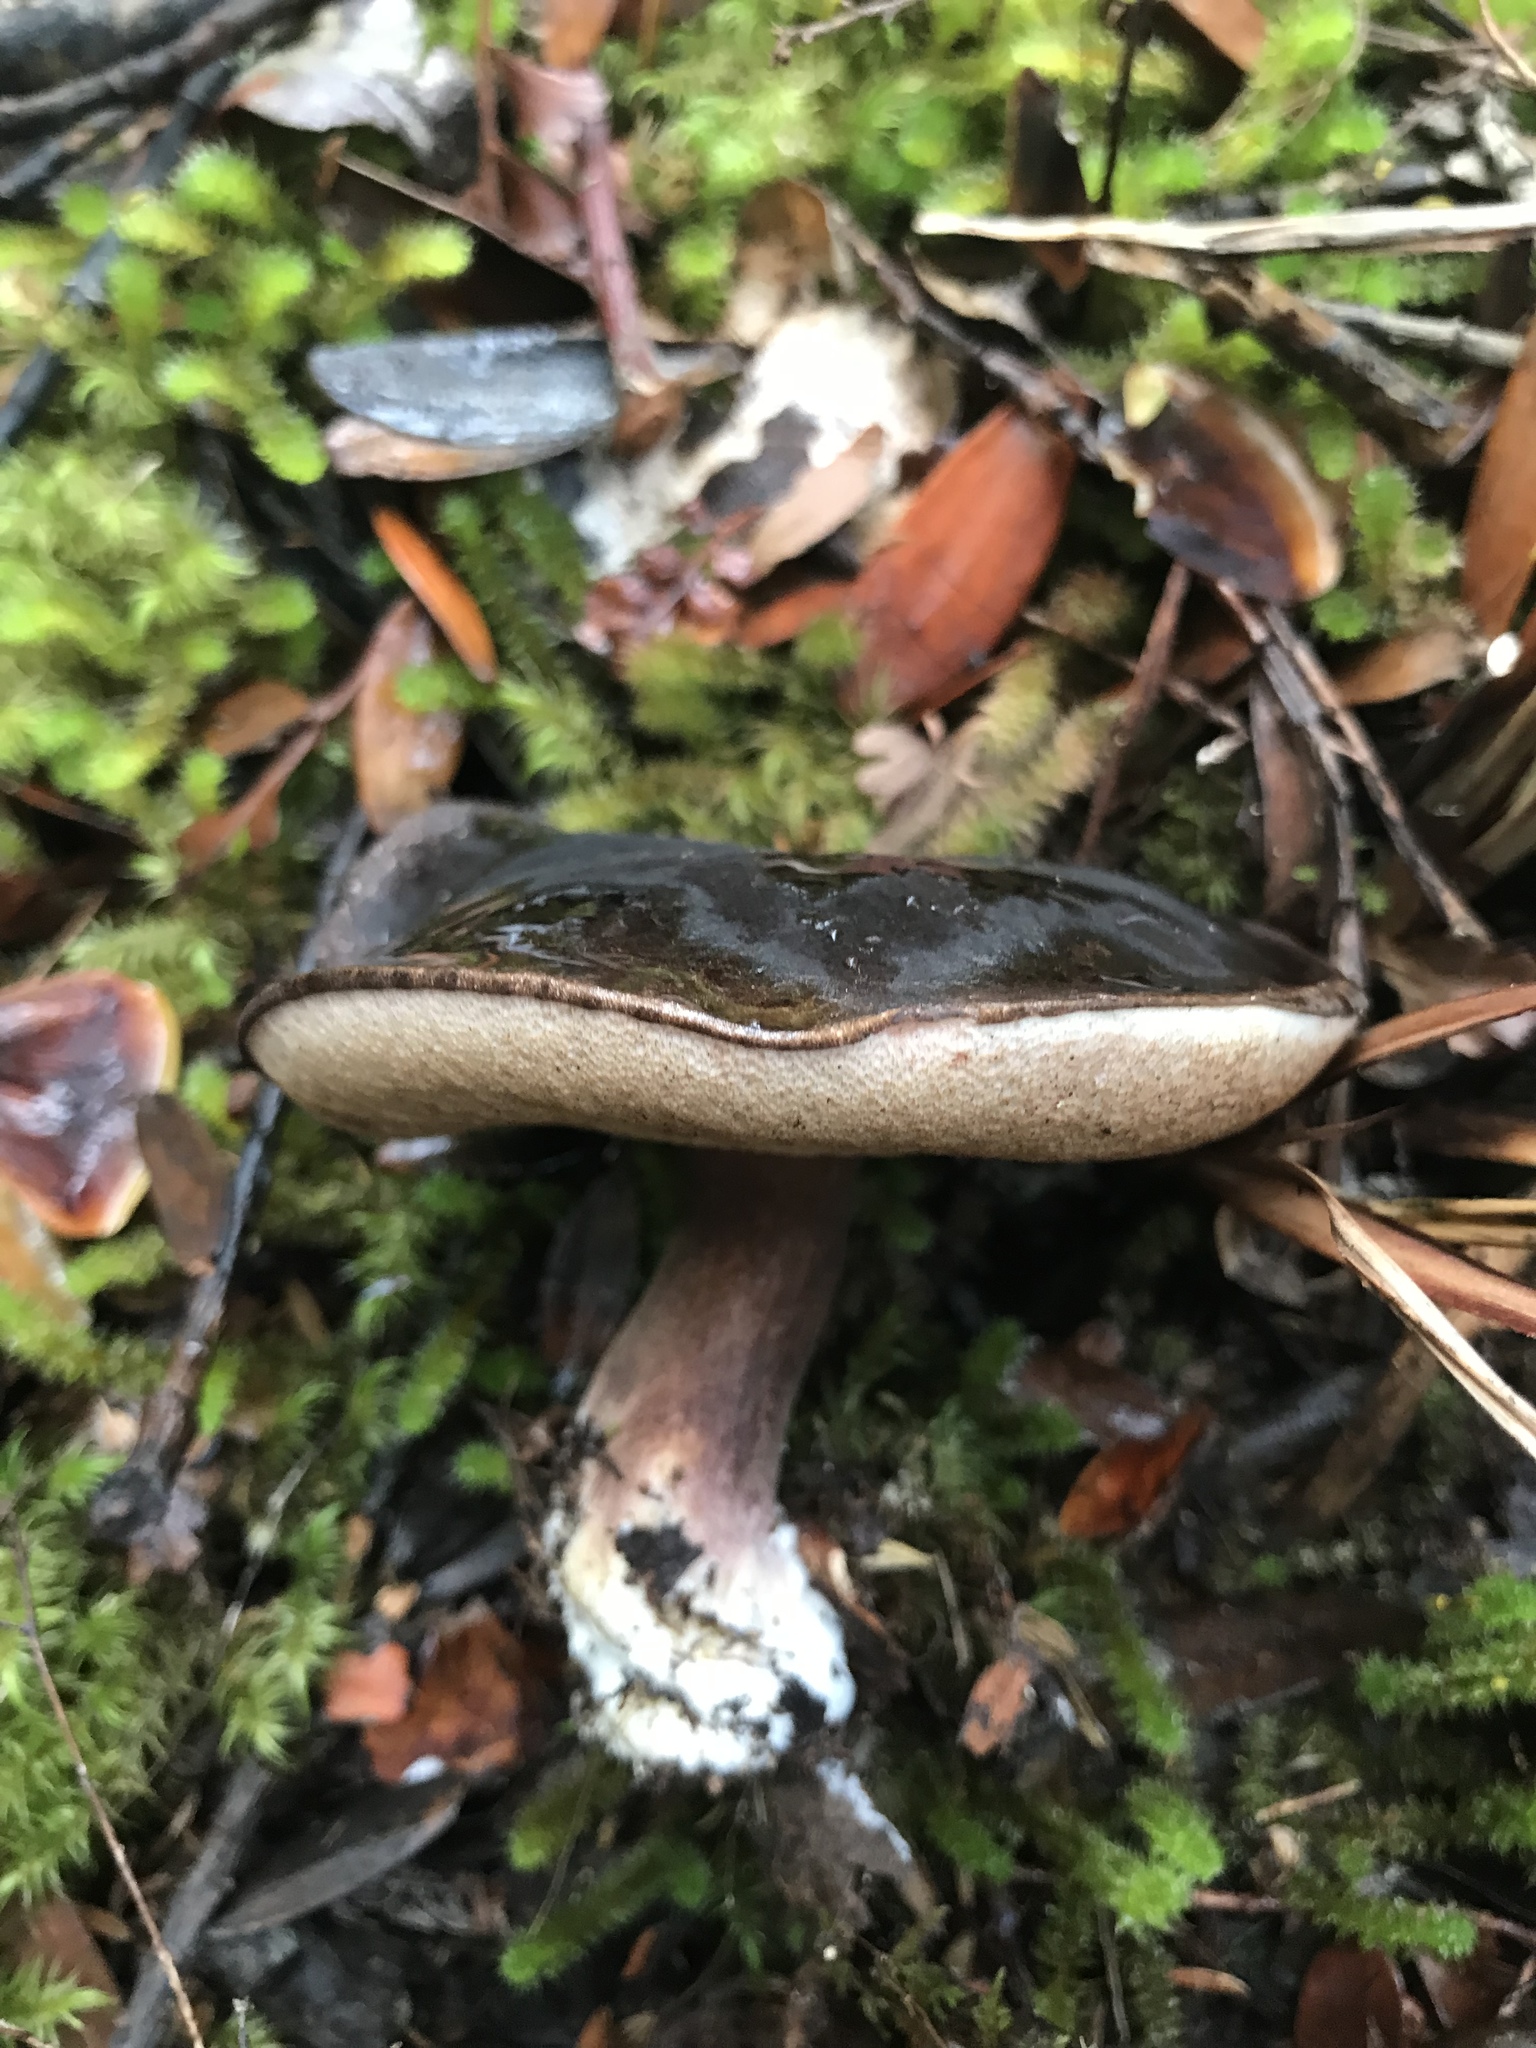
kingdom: Fungi
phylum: Basidiomycota
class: Agaricomycetes
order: Boletales
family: Boletaceae
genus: Porphyrellus
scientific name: Porphyrellus formosus
